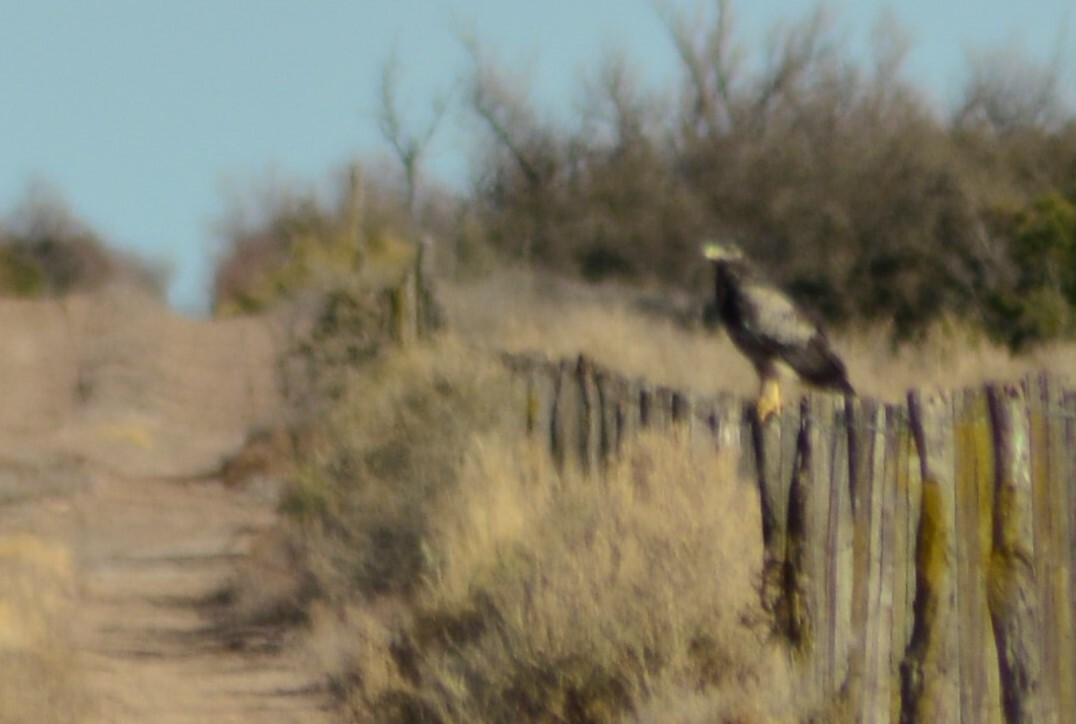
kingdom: Animalia
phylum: Chordata
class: Aves
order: Accipitriformes
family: Accipitridae
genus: Geranoaetus
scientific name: Geranoaetus melanoleucus
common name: Black-chested buzzard-eagle
